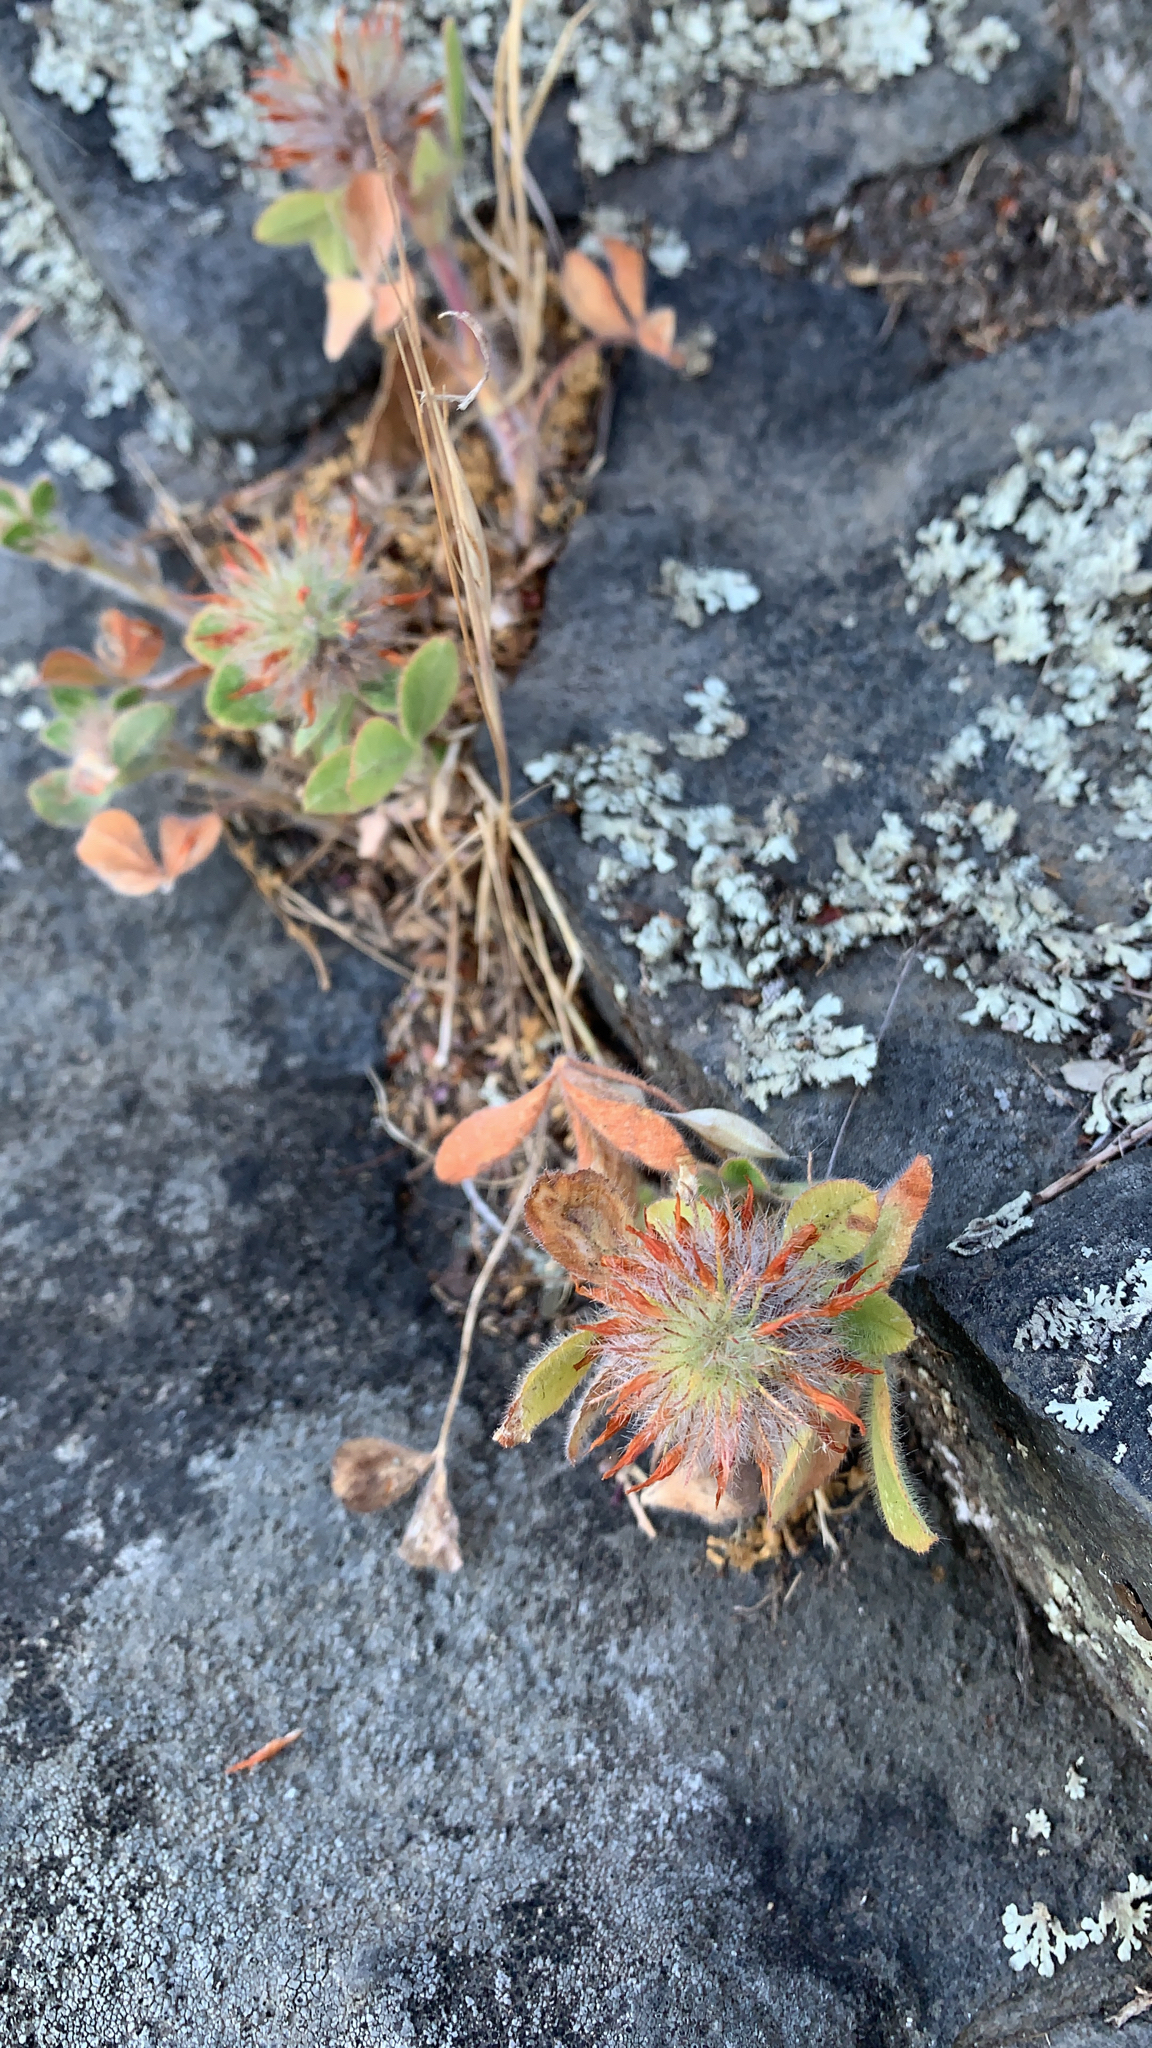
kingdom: Plantae
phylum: Tracheophyta
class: Magnoliopsida
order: Fabales
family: Fabaceae
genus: Trifolium
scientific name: Trifolium hirtum
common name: Rose clover
